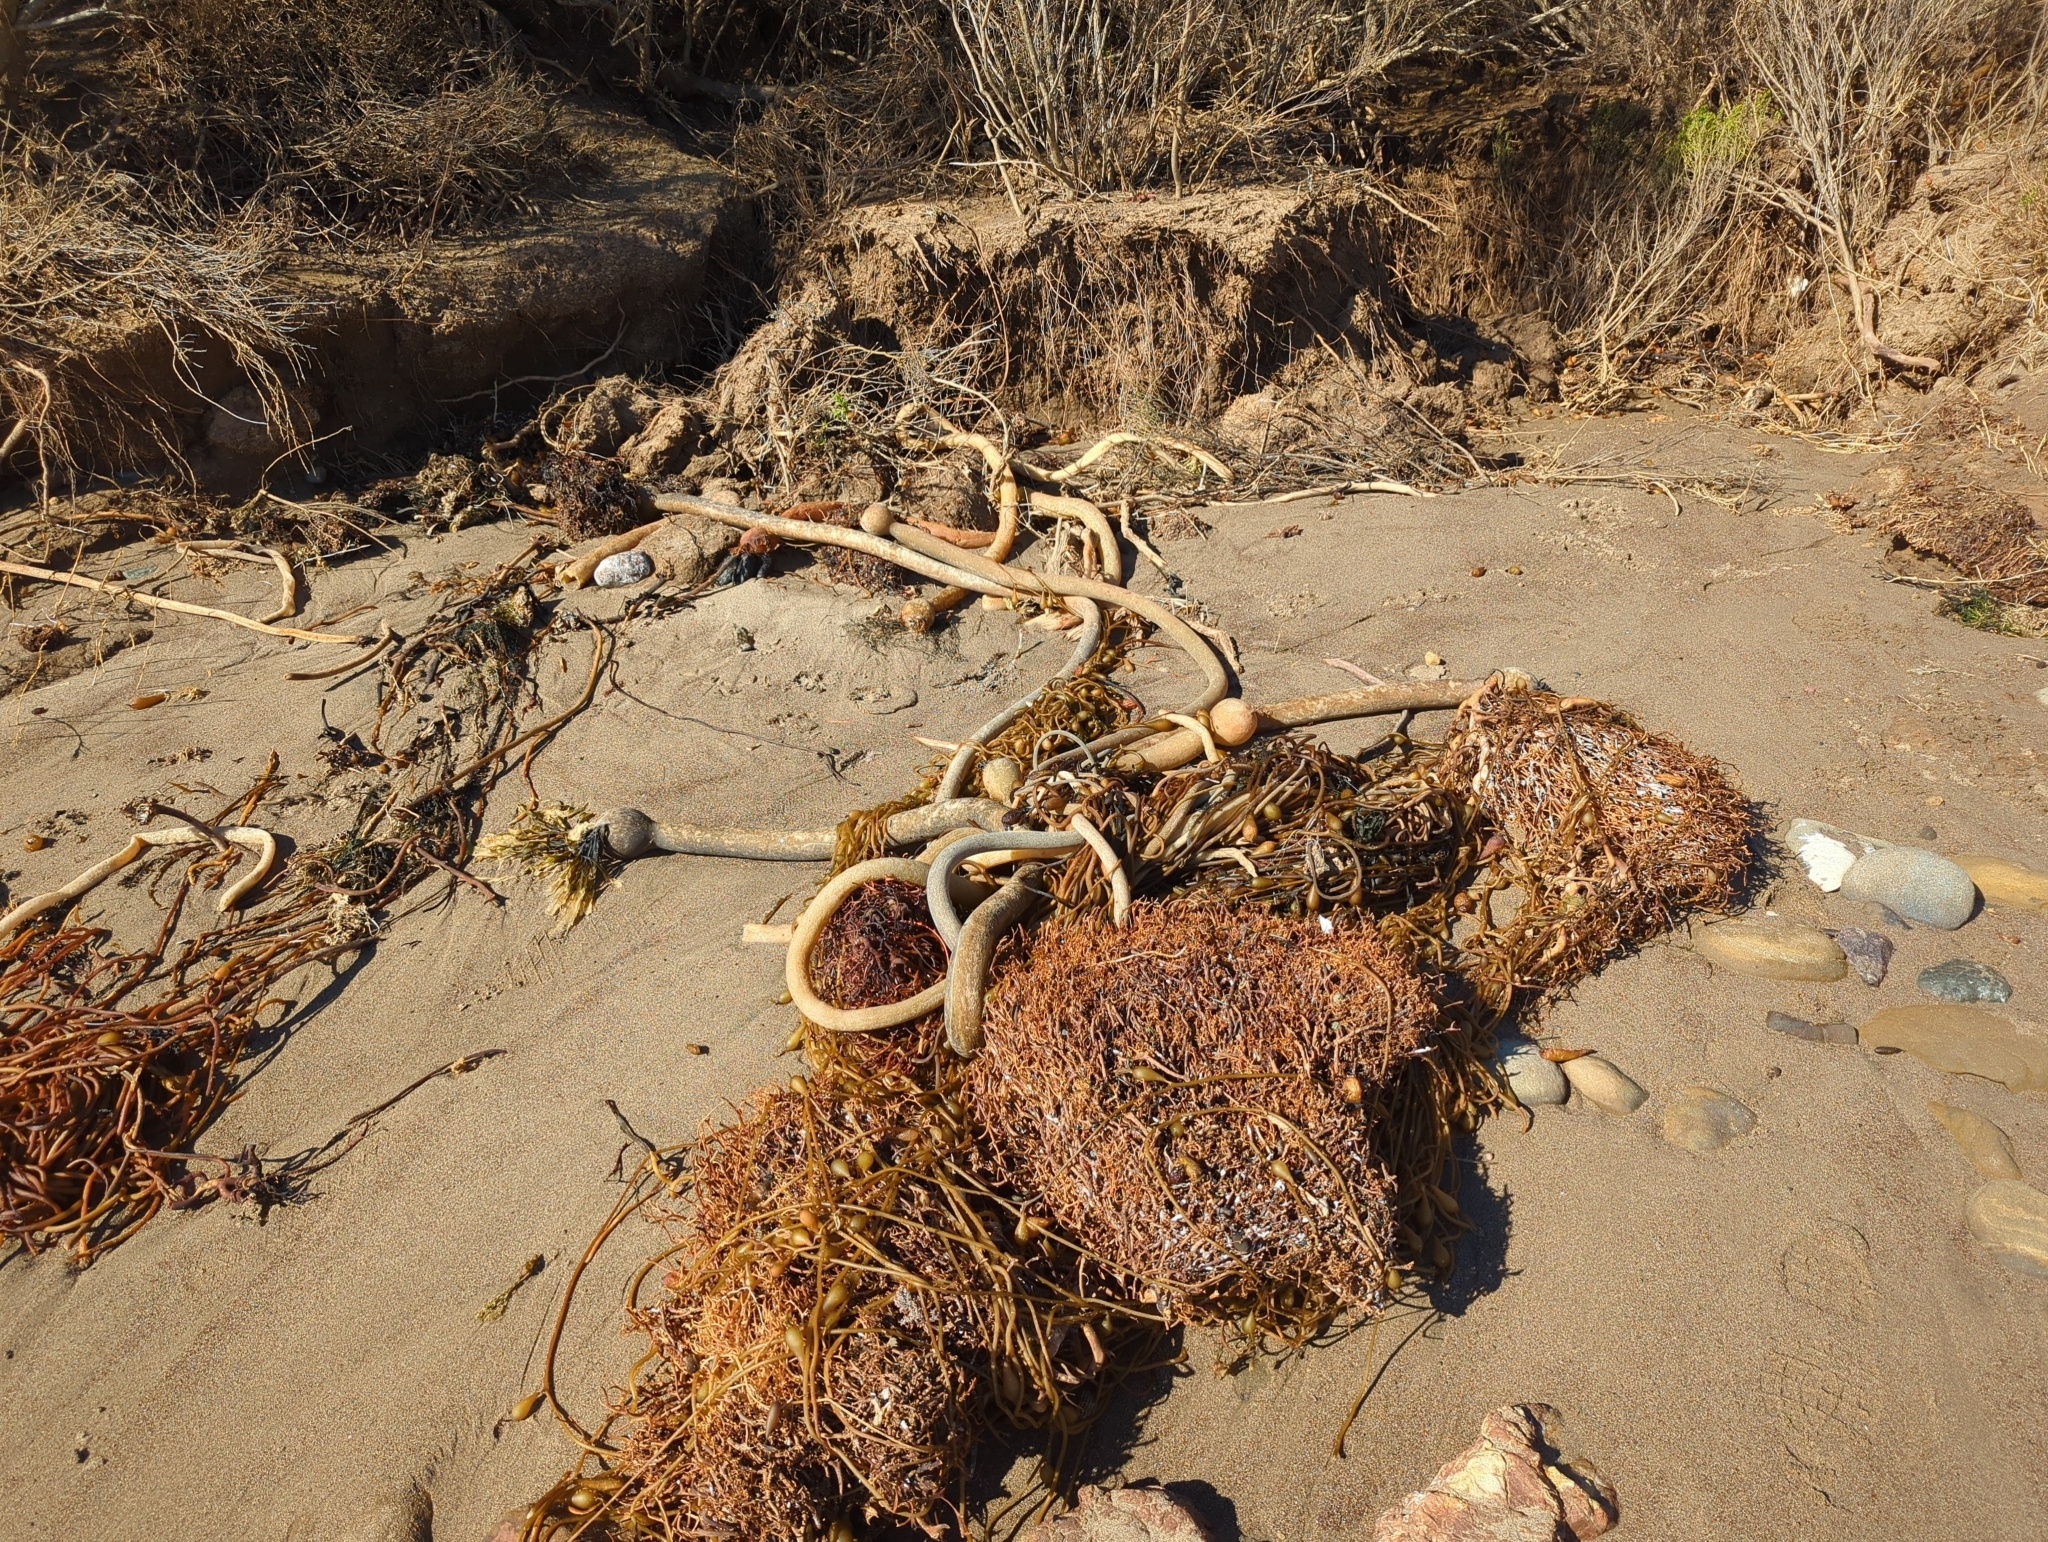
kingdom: Chromista
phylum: Ochrophyta
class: Phaeophyceae
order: Laminariales
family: Laminariaceae
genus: Nereocystis
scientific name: Nereocystis luetkeana
